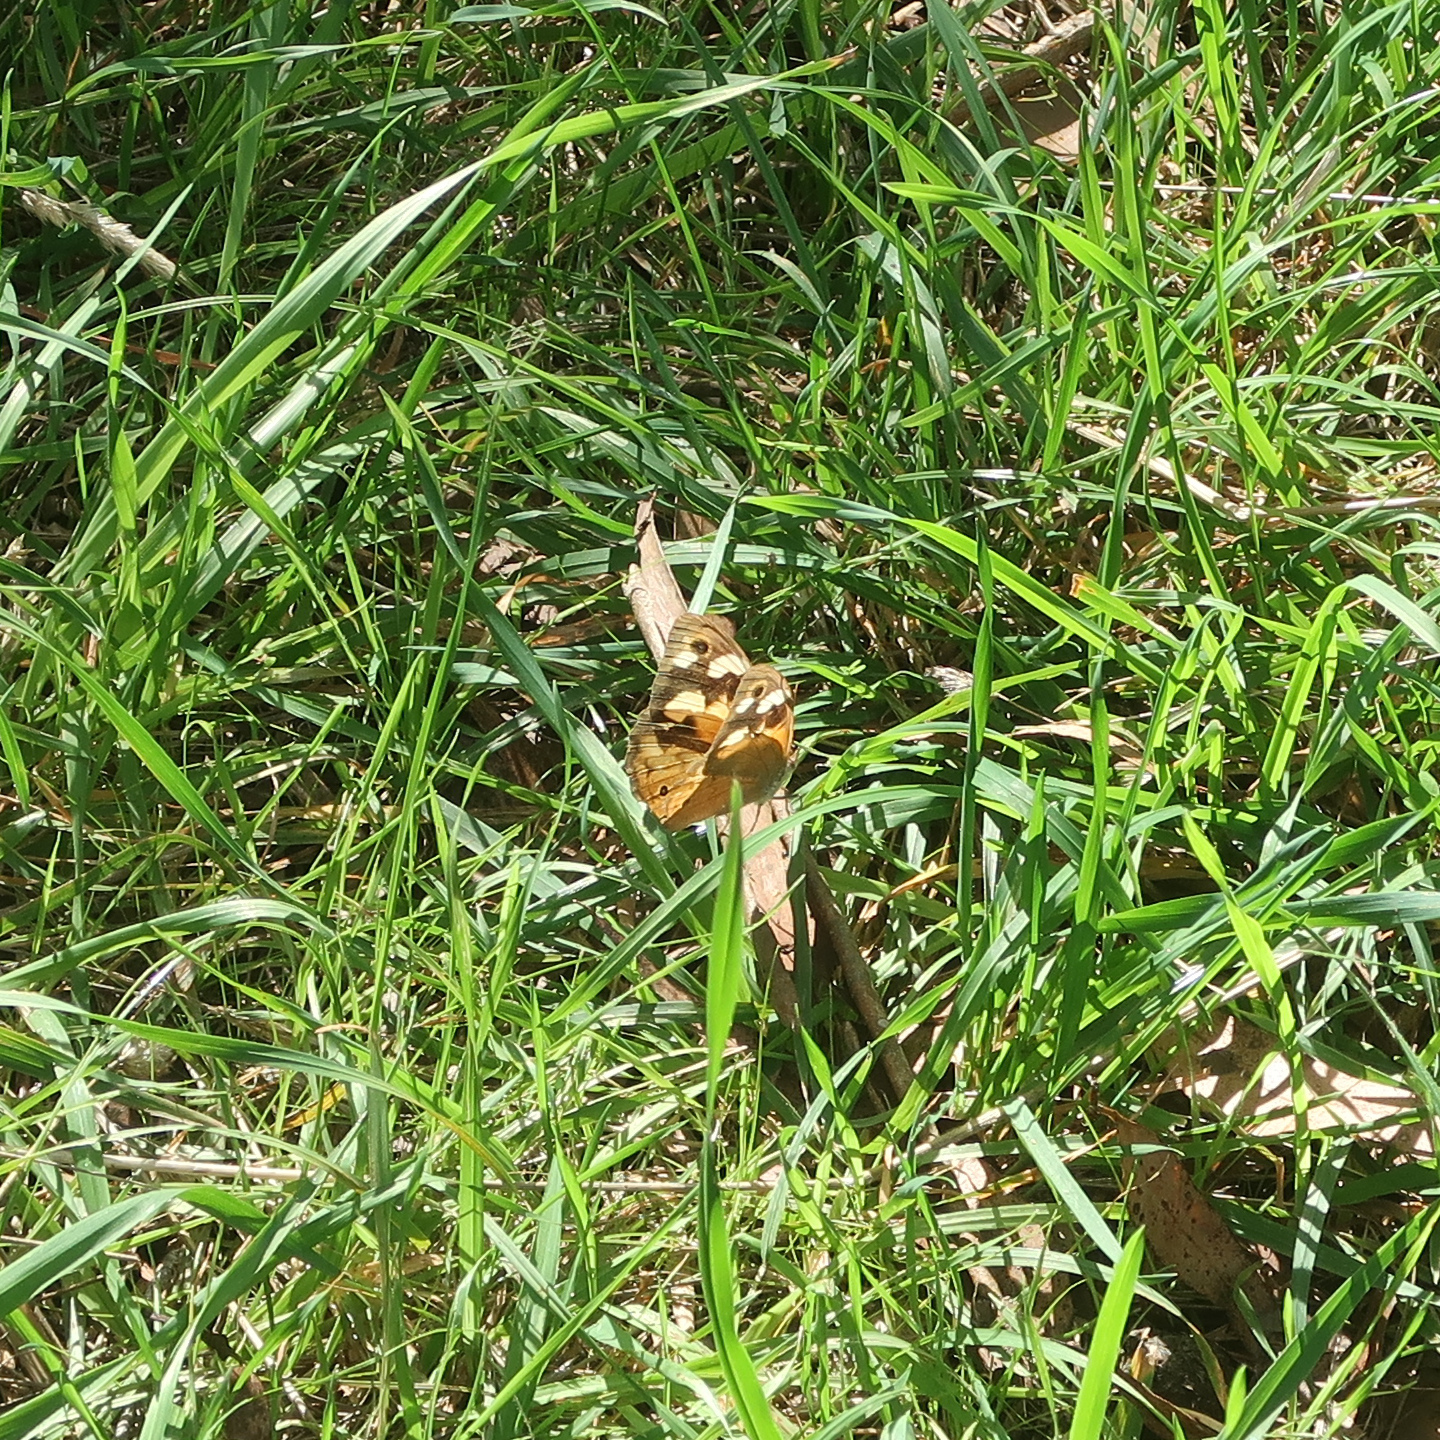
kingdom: Animalia
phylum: Arthropoda
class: Insecta
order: Lepidoptera
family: Nymphalidae
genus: Heteronympha
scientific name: Heteronympha merope
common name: Common brown
